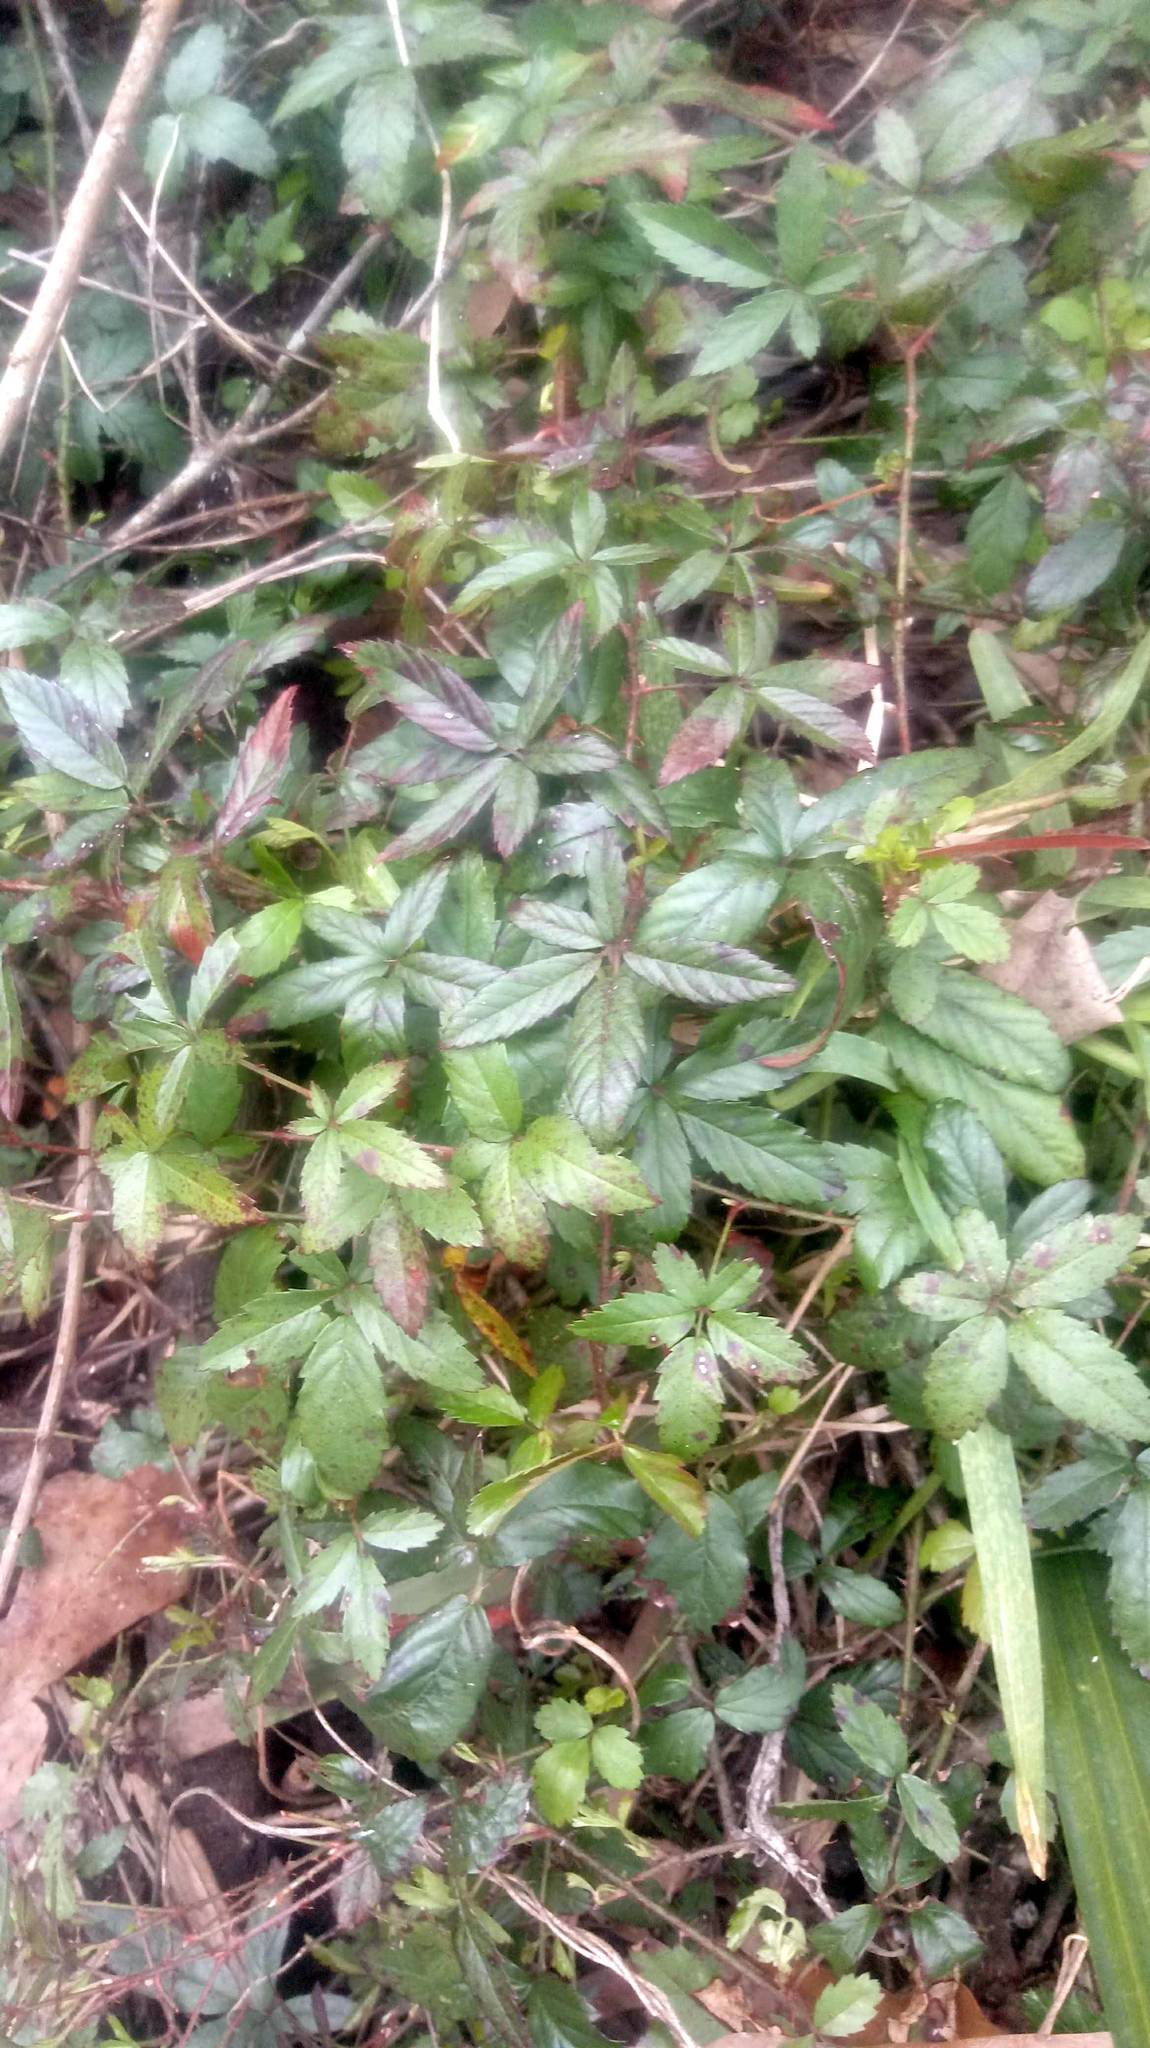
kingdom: Plantae
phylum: Tracheophyta
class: Magnoliopsida
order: Rosales
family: Rosaceae
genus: Rubus
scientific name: Rubus trivialis
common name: Southern dewberry
